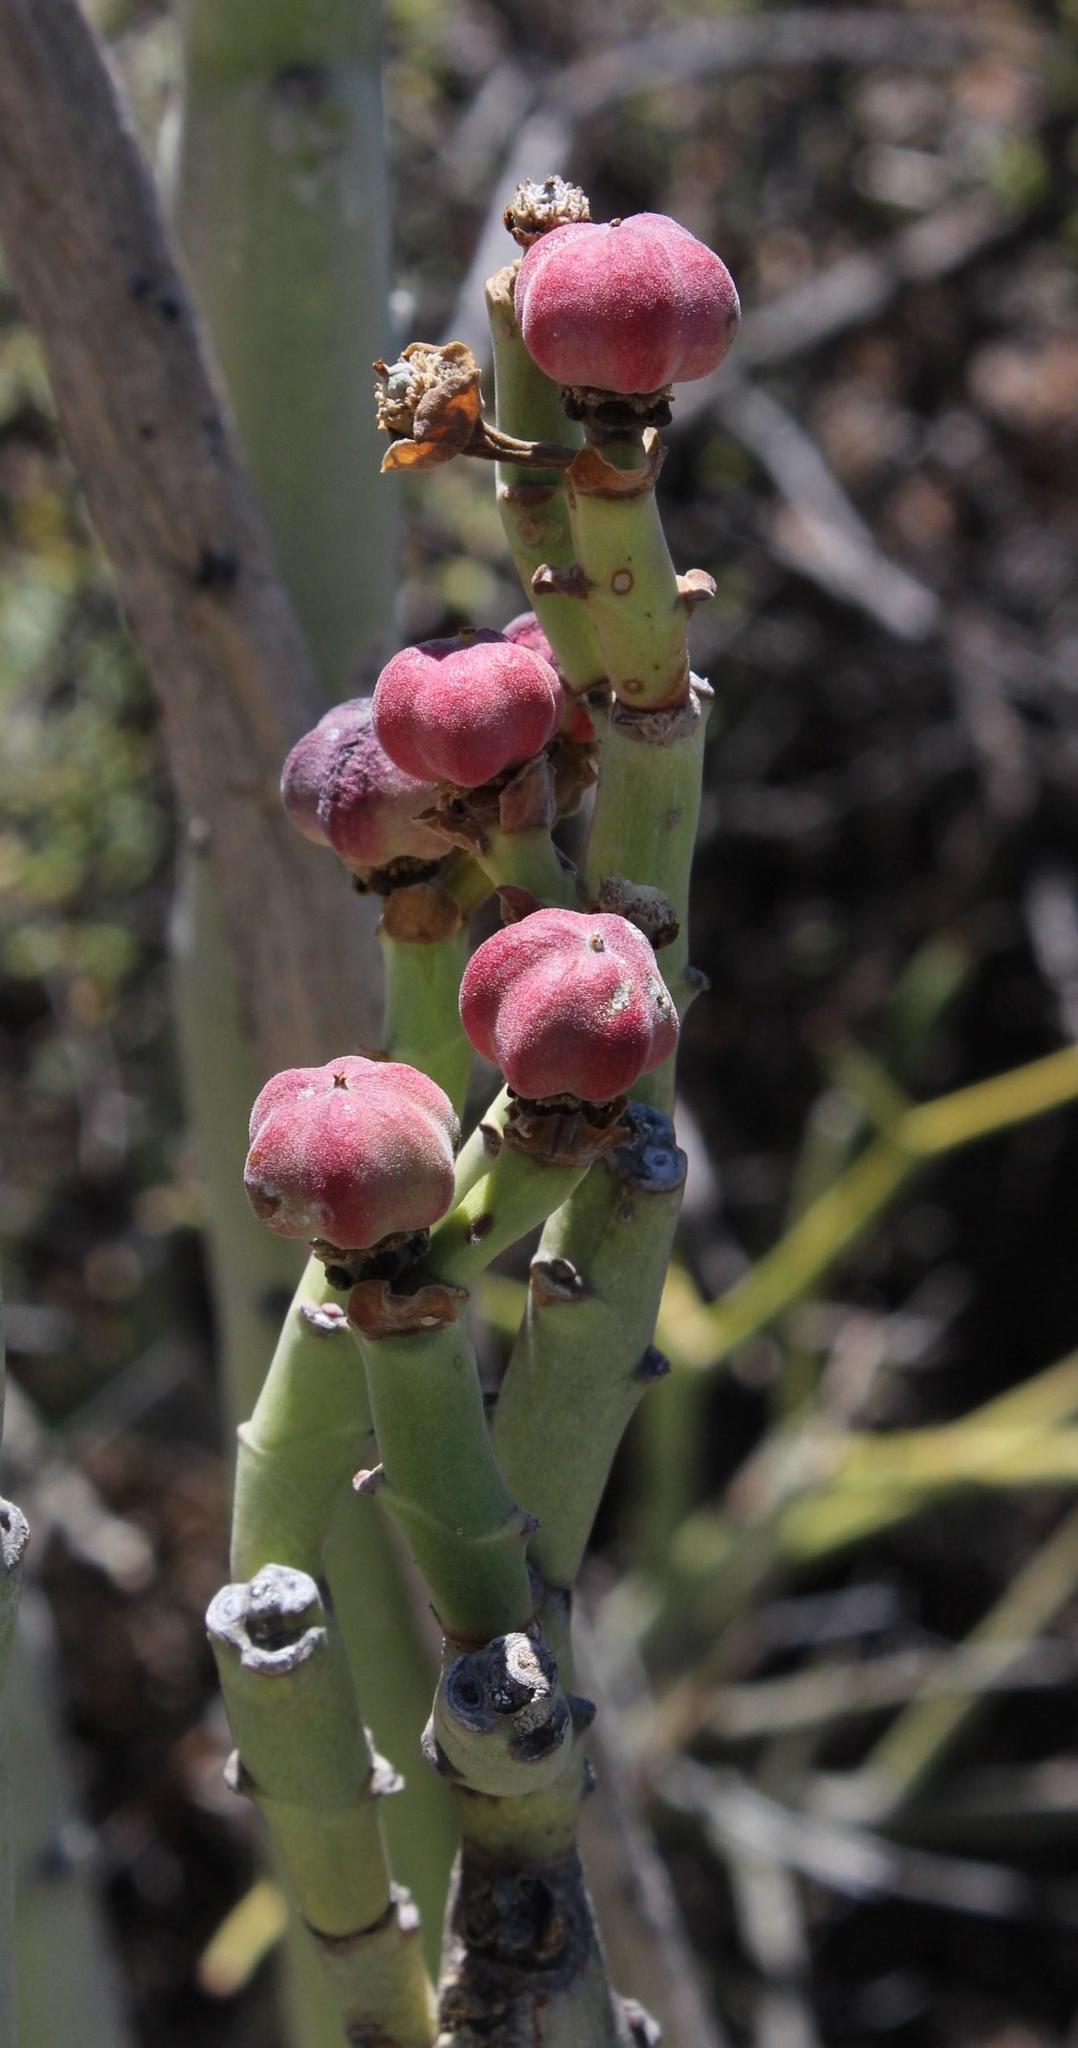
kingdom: Plantae
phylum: Tracheophyta
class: Magnoliopsida
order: Malpighiales
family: Euphorbiaceae
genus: Euphorbia
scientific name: Euphorbia dregeana
